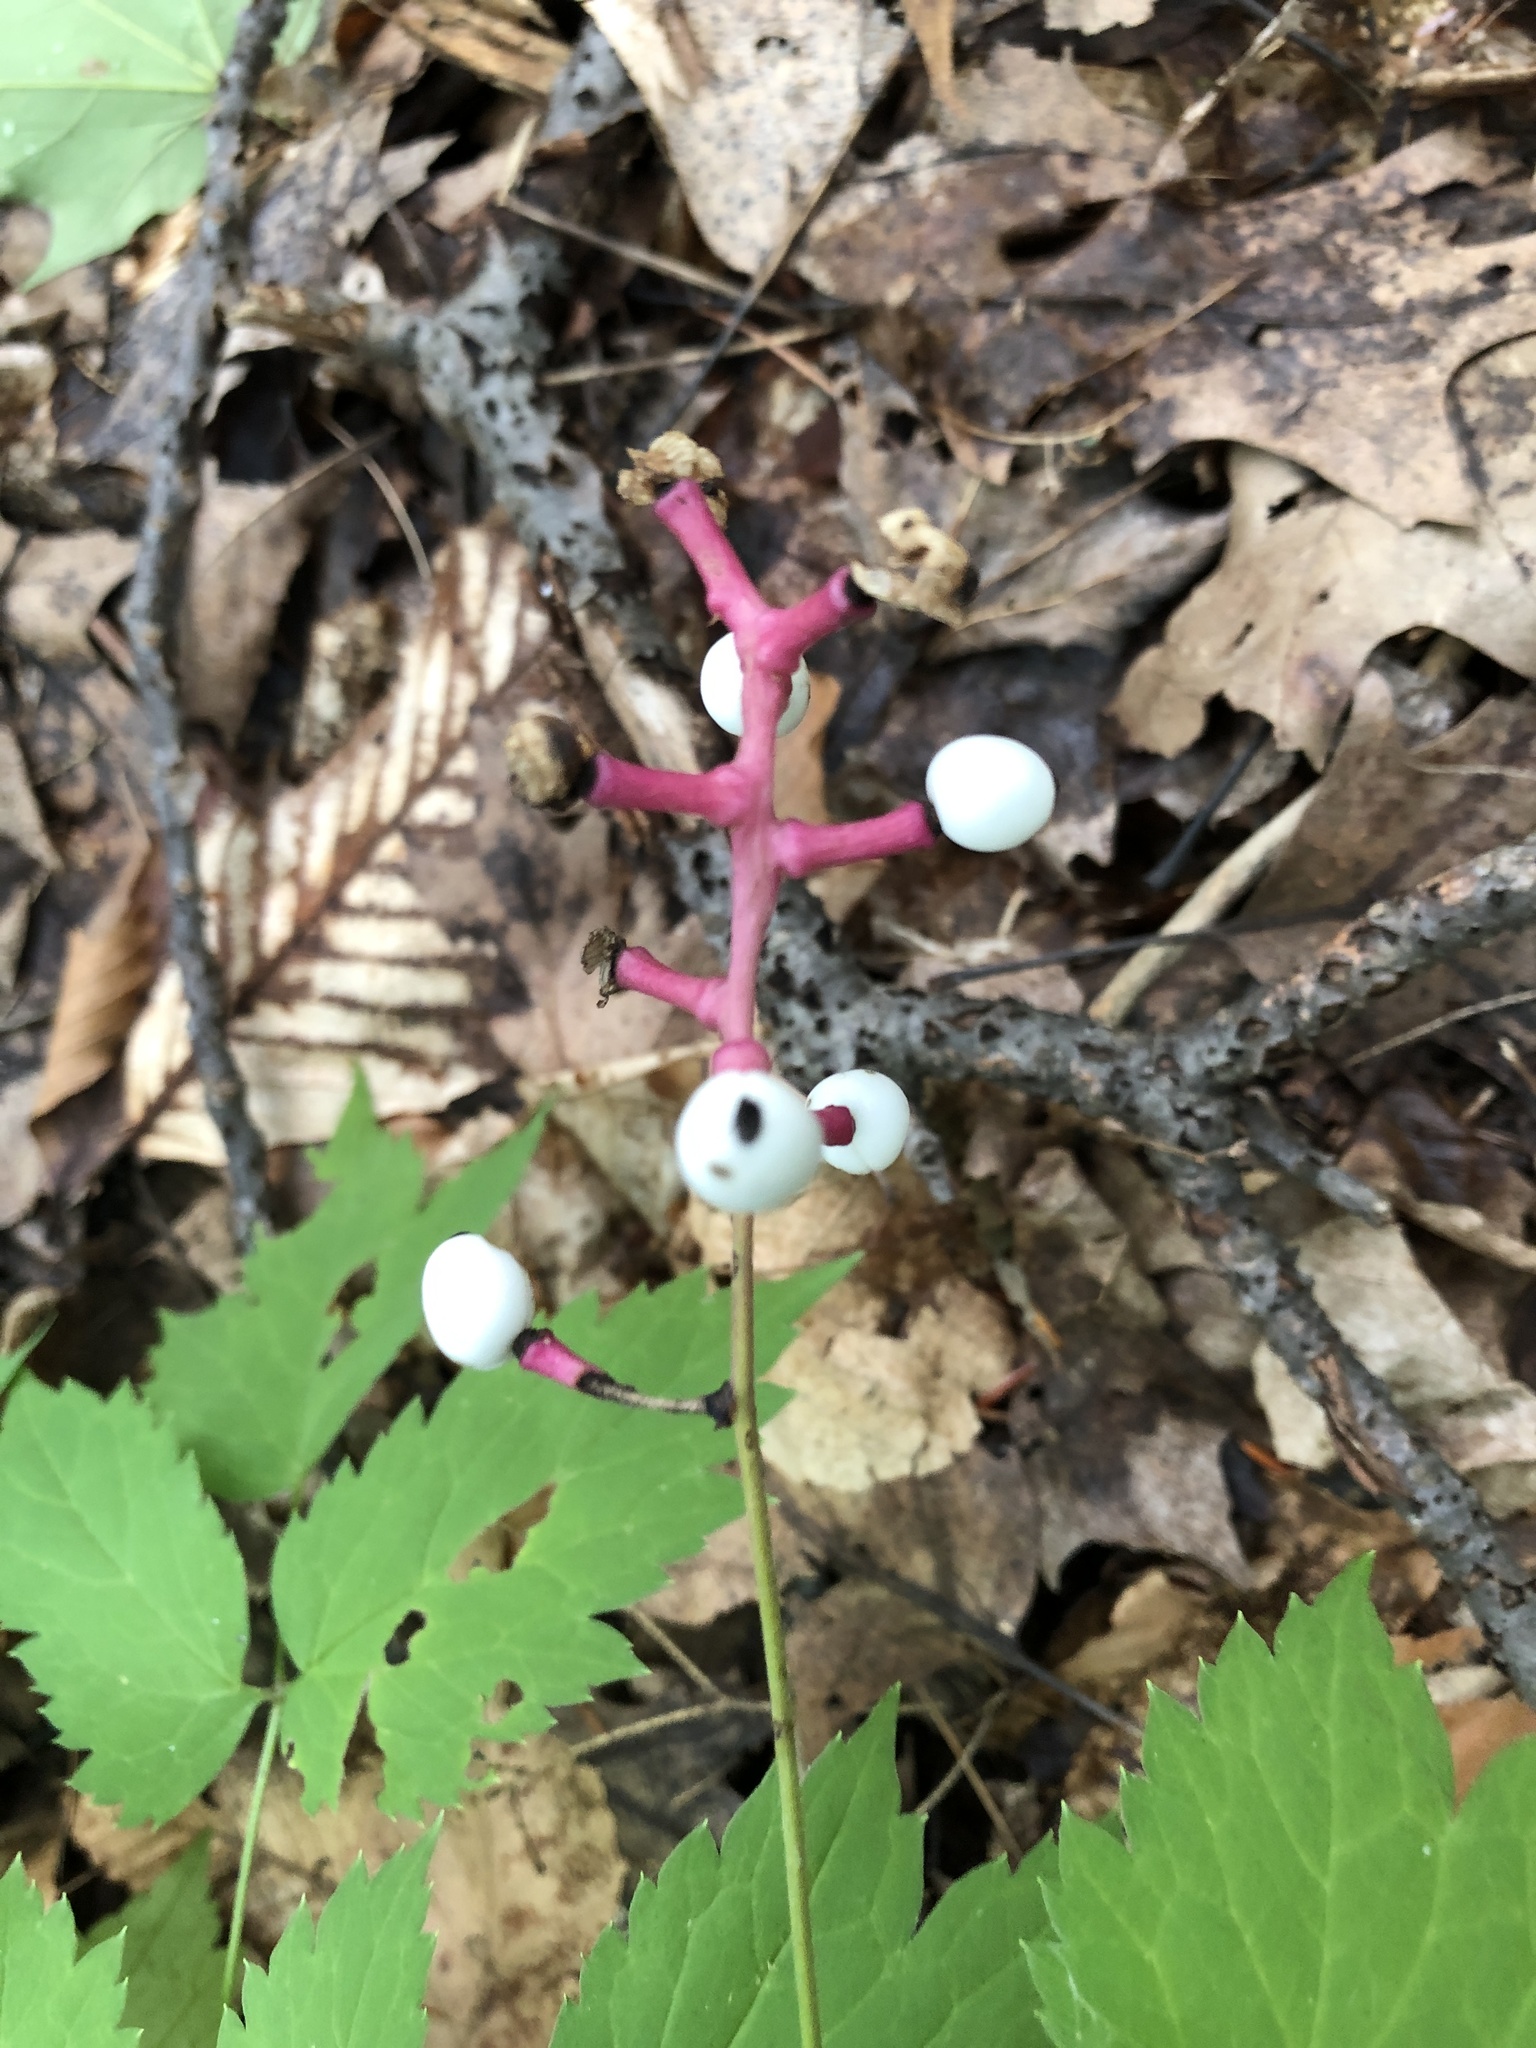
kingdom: Plantae
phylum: Tracheophyta
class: Magnoliopsida
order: Ranunculales
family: Ranunculaceae
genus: Actaea
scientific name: Actaea pachypoda
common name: Doll's-eyes
